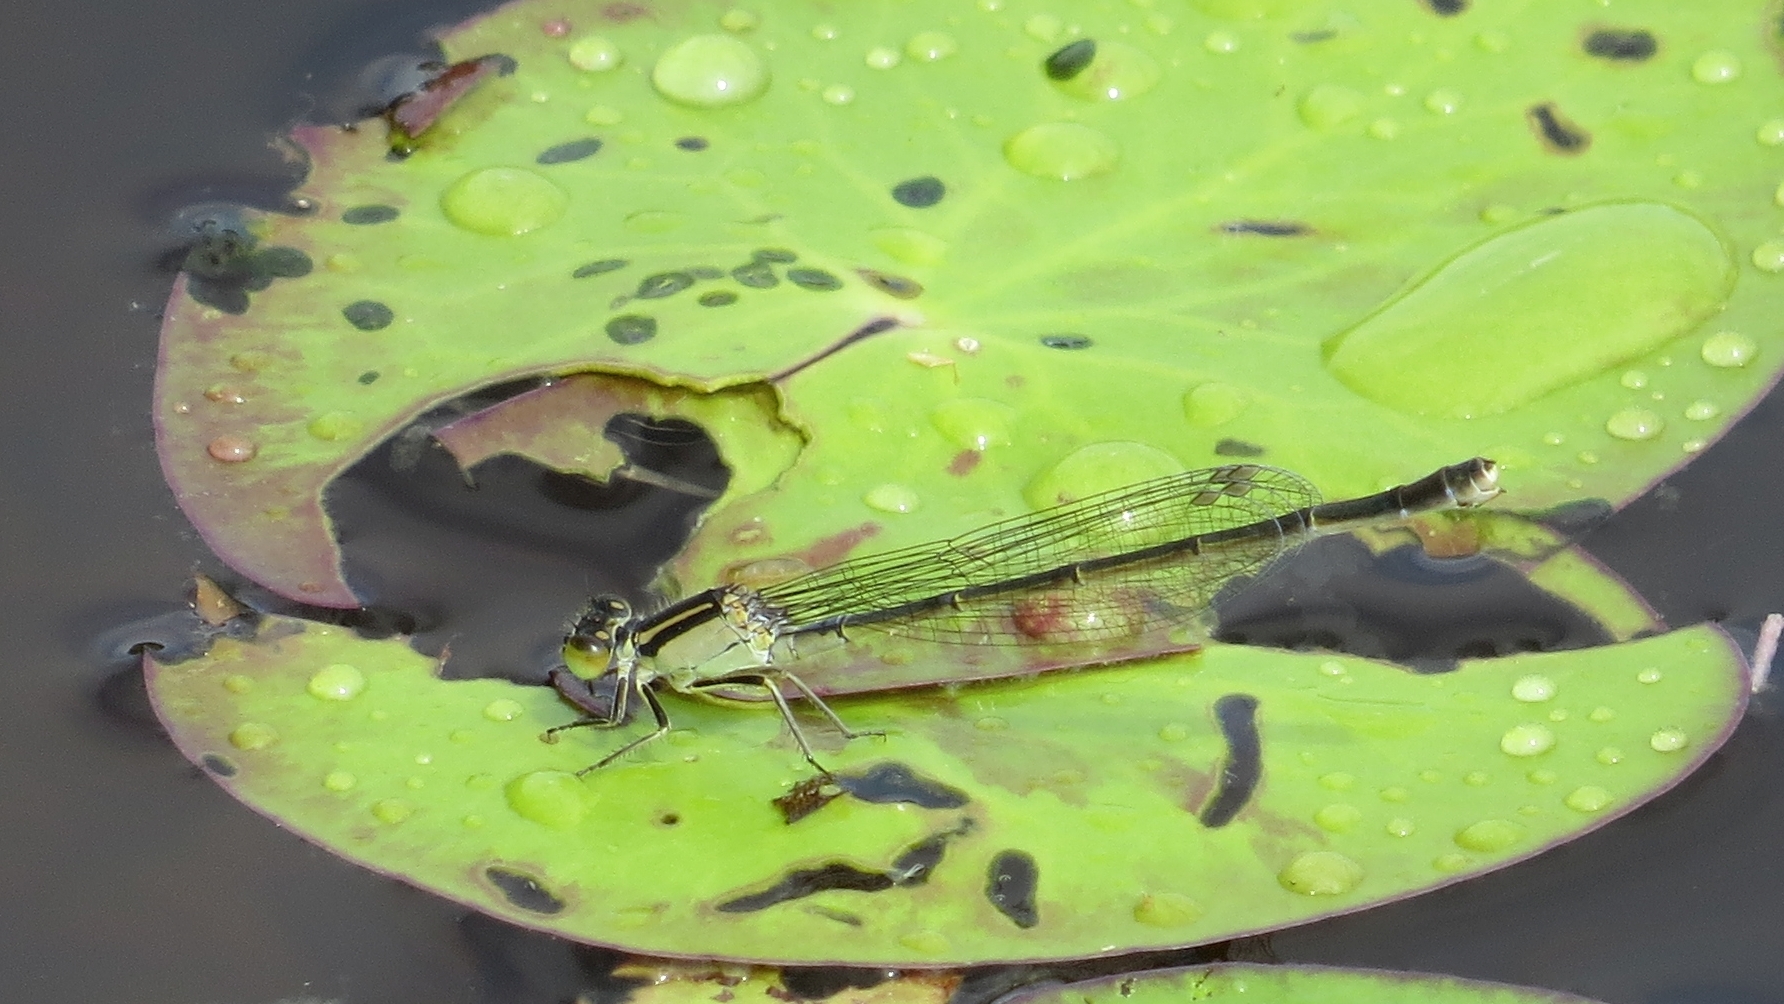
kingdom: Animalia
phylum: Arthropoda
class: Insecta
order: Odonata
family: Coenagrionidae
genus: Ischnura
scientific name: Ischnura heterosticta
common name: Common bluetail
